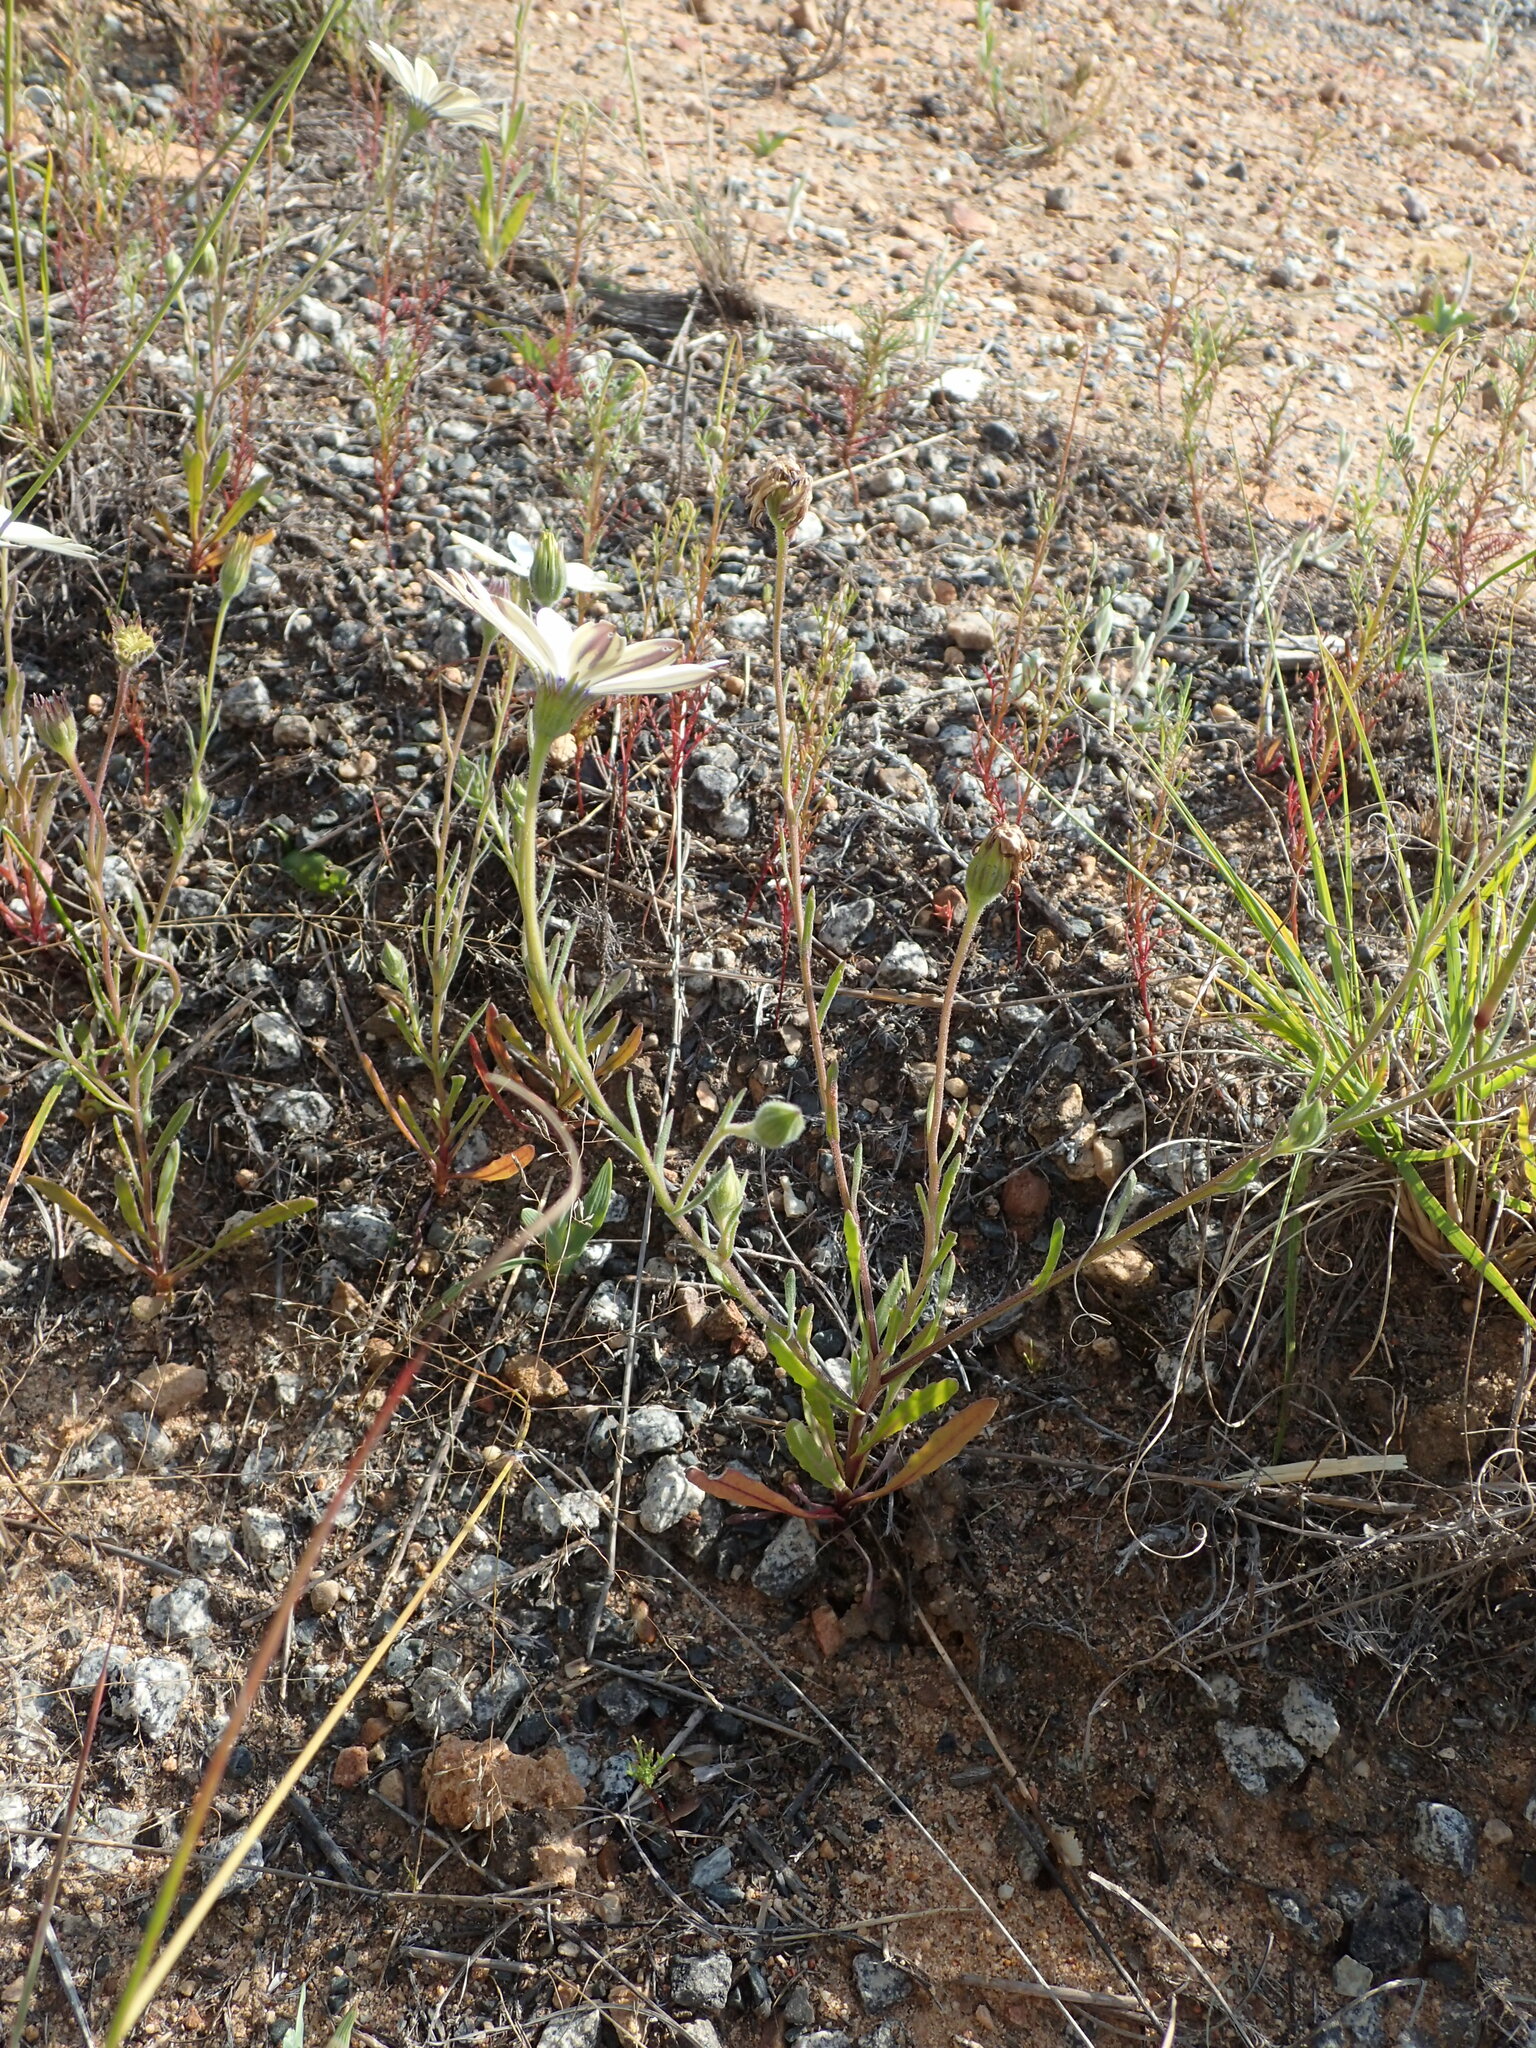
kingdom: Plantae
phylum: Tracheophyta
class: Magnoliopsida
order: Asterales
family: Asteraceae
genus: Dimorphotheca
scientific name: Dimorphotheca pluvialis
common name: Weather prophet
